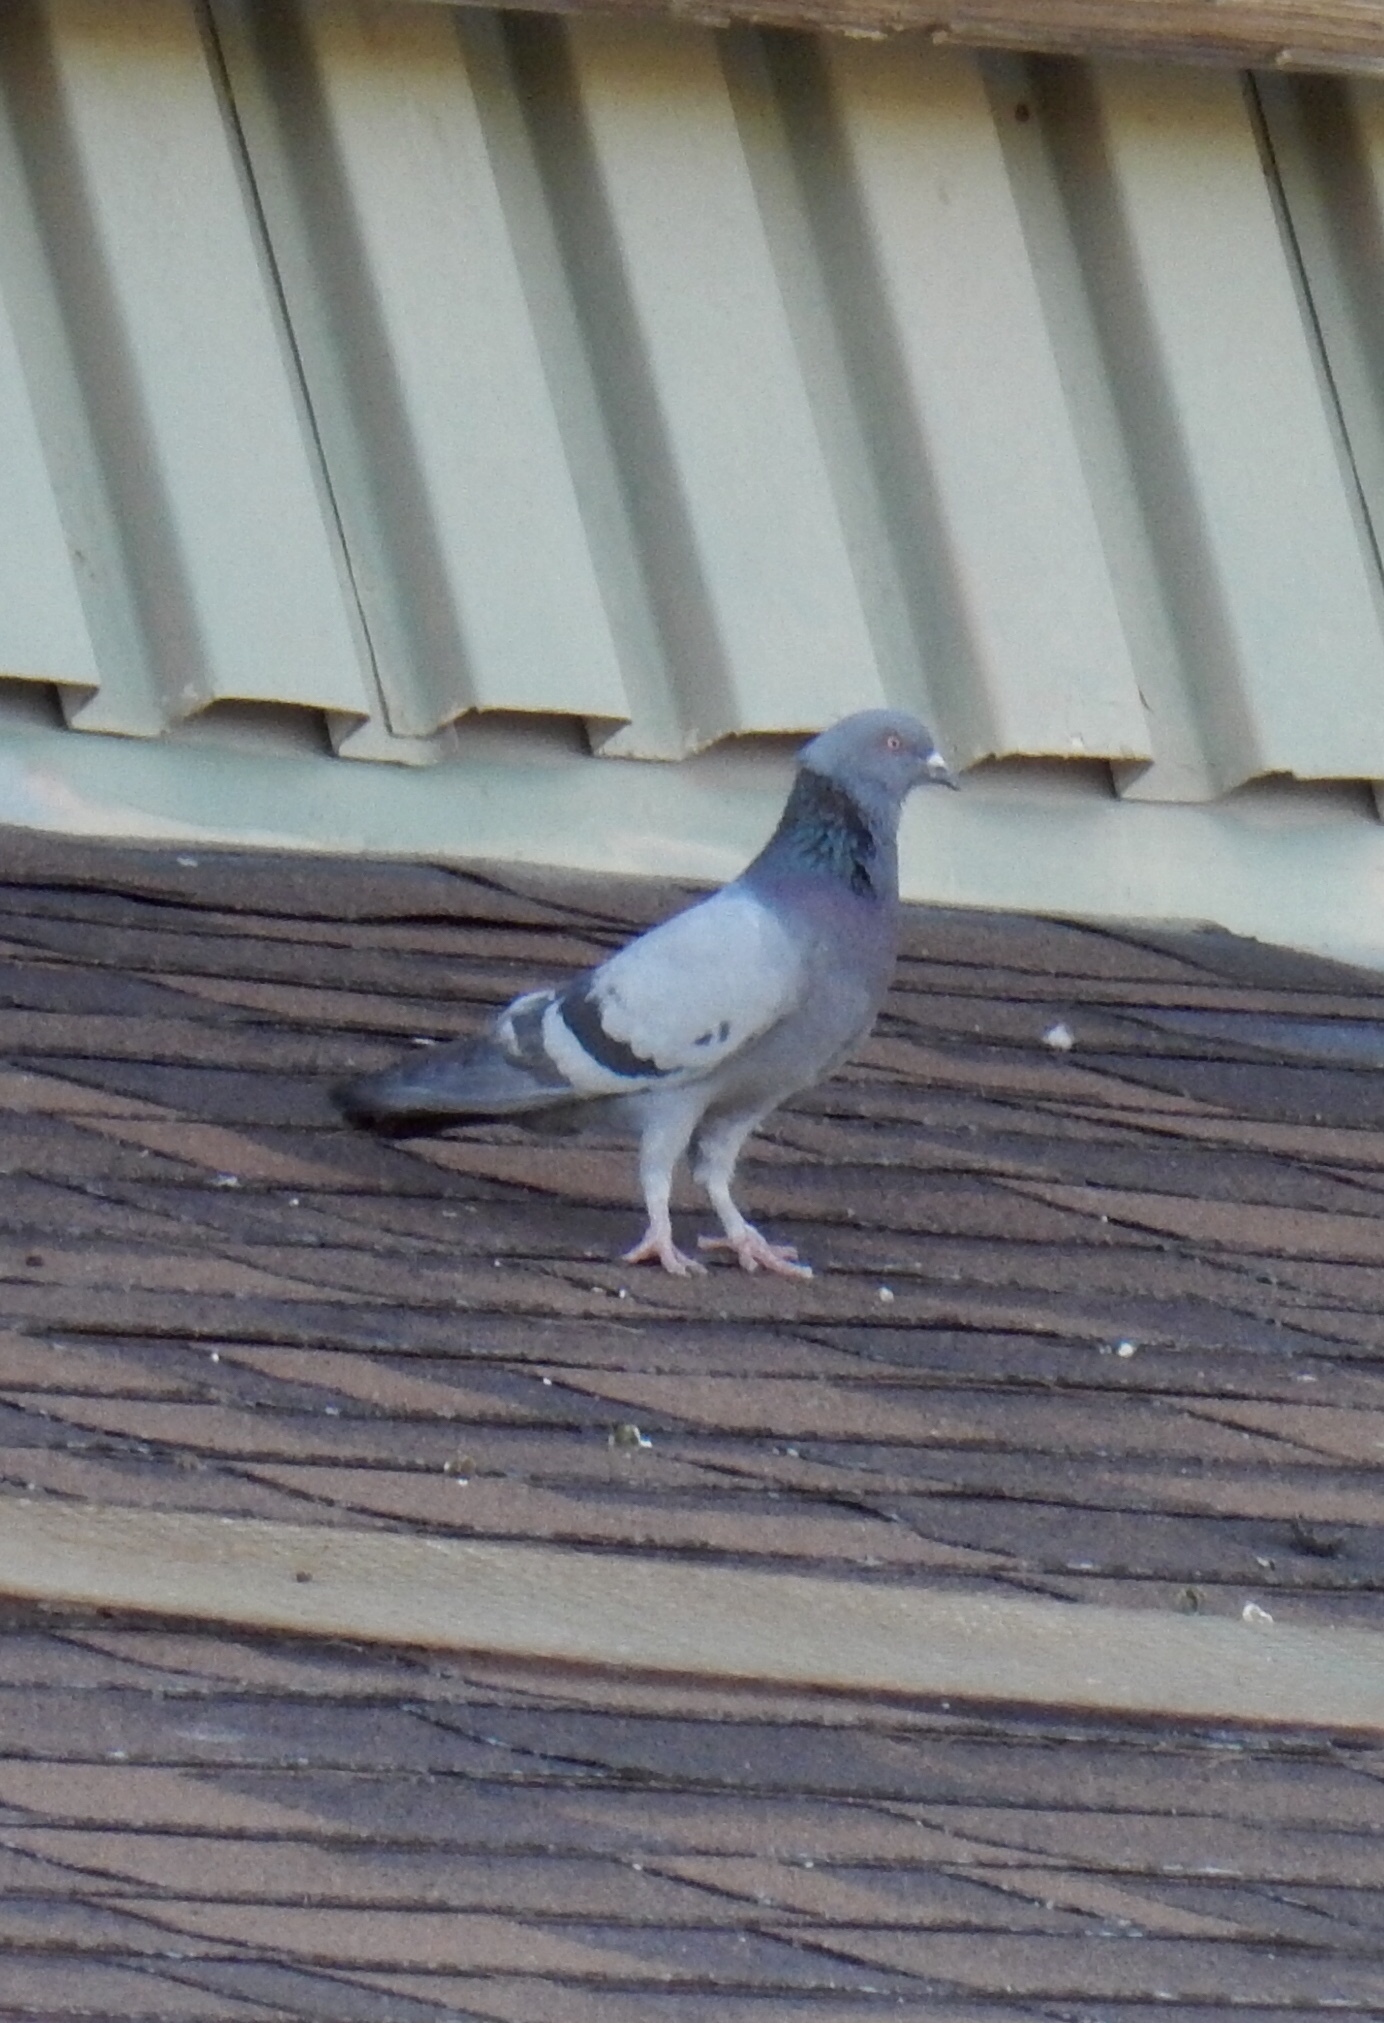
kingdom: Animalia
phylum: Chordata
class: Aves
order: Columbiformes
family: Columbidae
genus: Columba
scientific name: Columba livia
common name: Rock pigeon
